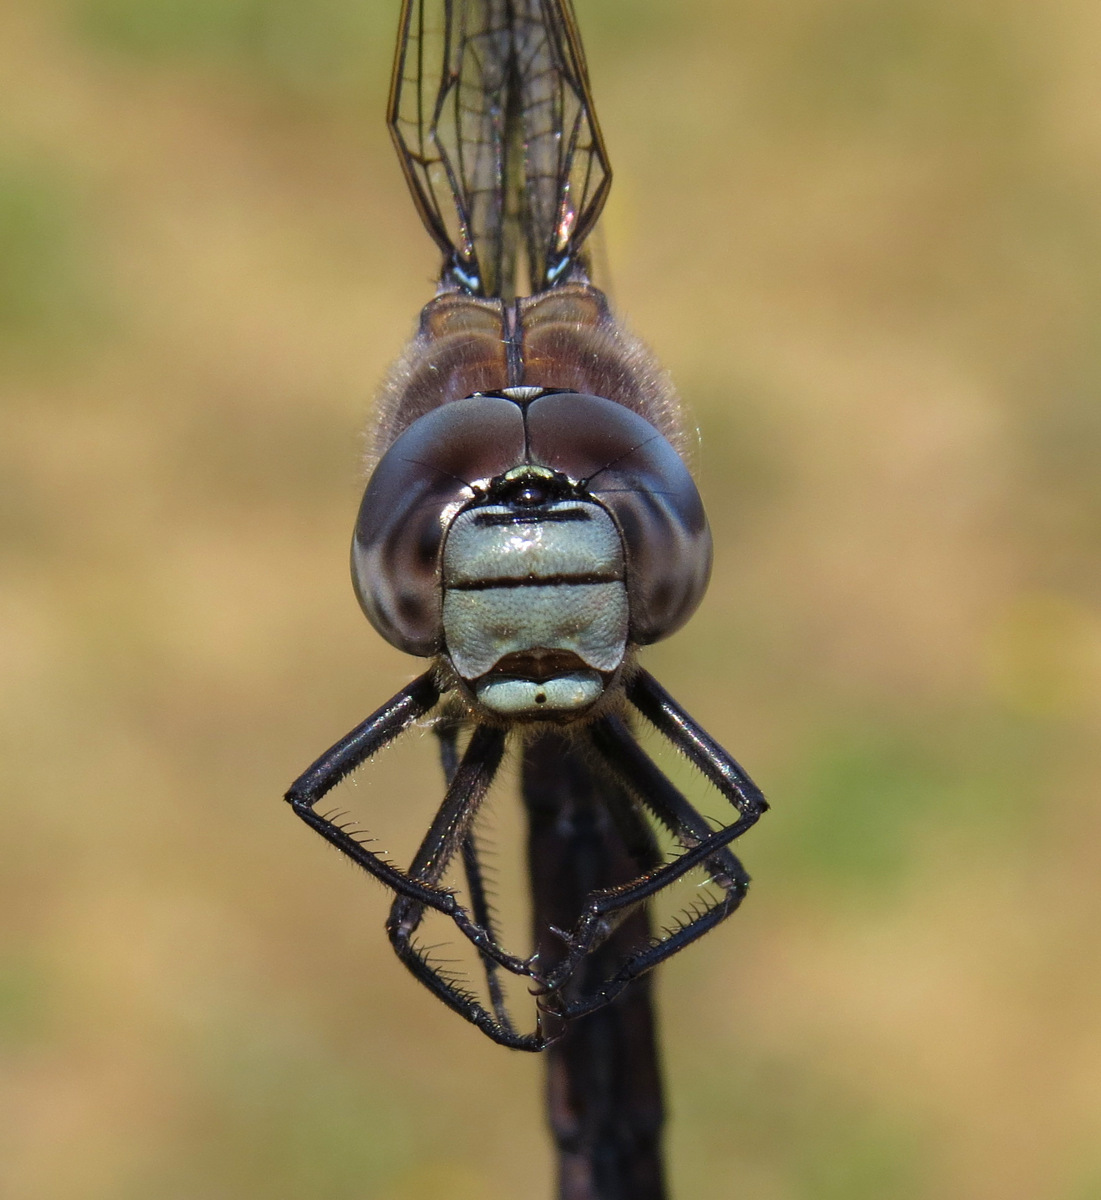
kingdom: Animalia
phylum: Arthropoda
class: Insecta
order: Odonata
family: Aeshnidae
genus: Aeshna
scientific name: Aeshna interrupta
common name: Variable darner
